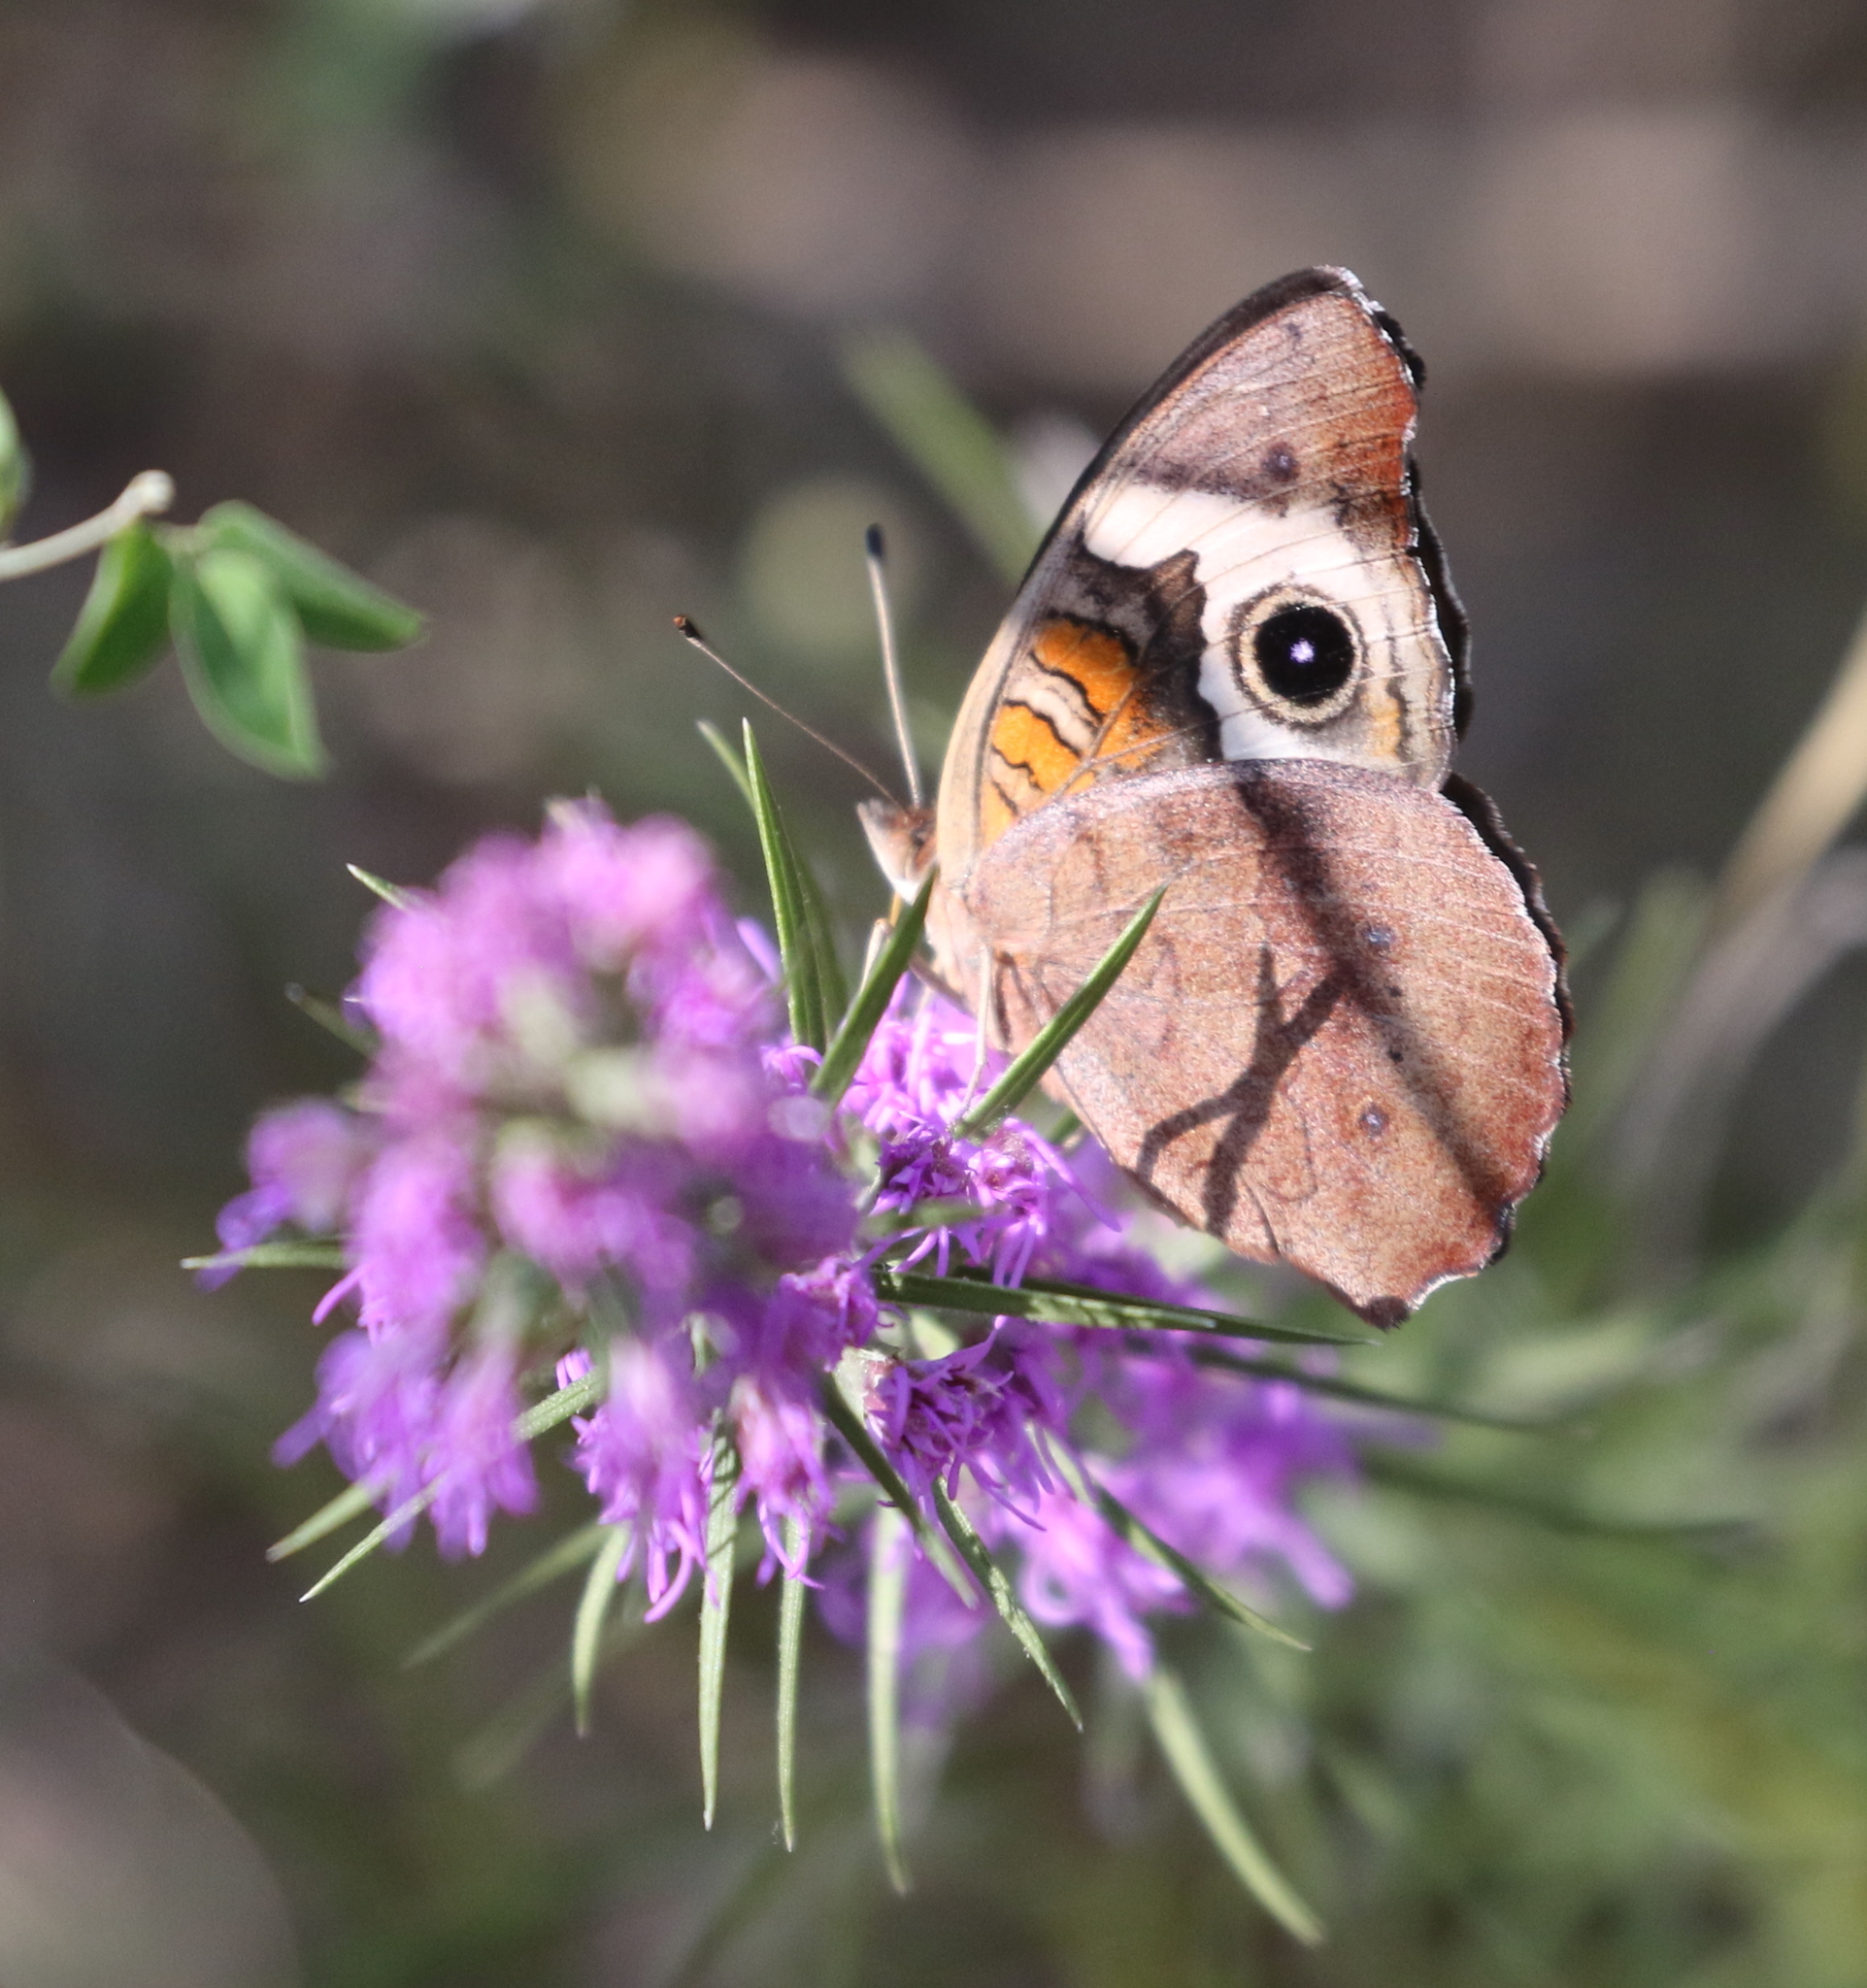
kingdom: Animalia
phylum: Arthropoda
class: Insecta
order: Lepidoptera
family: Nymphalidae
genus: Junonia
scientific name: Junonia coenia
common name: Common buckeye
